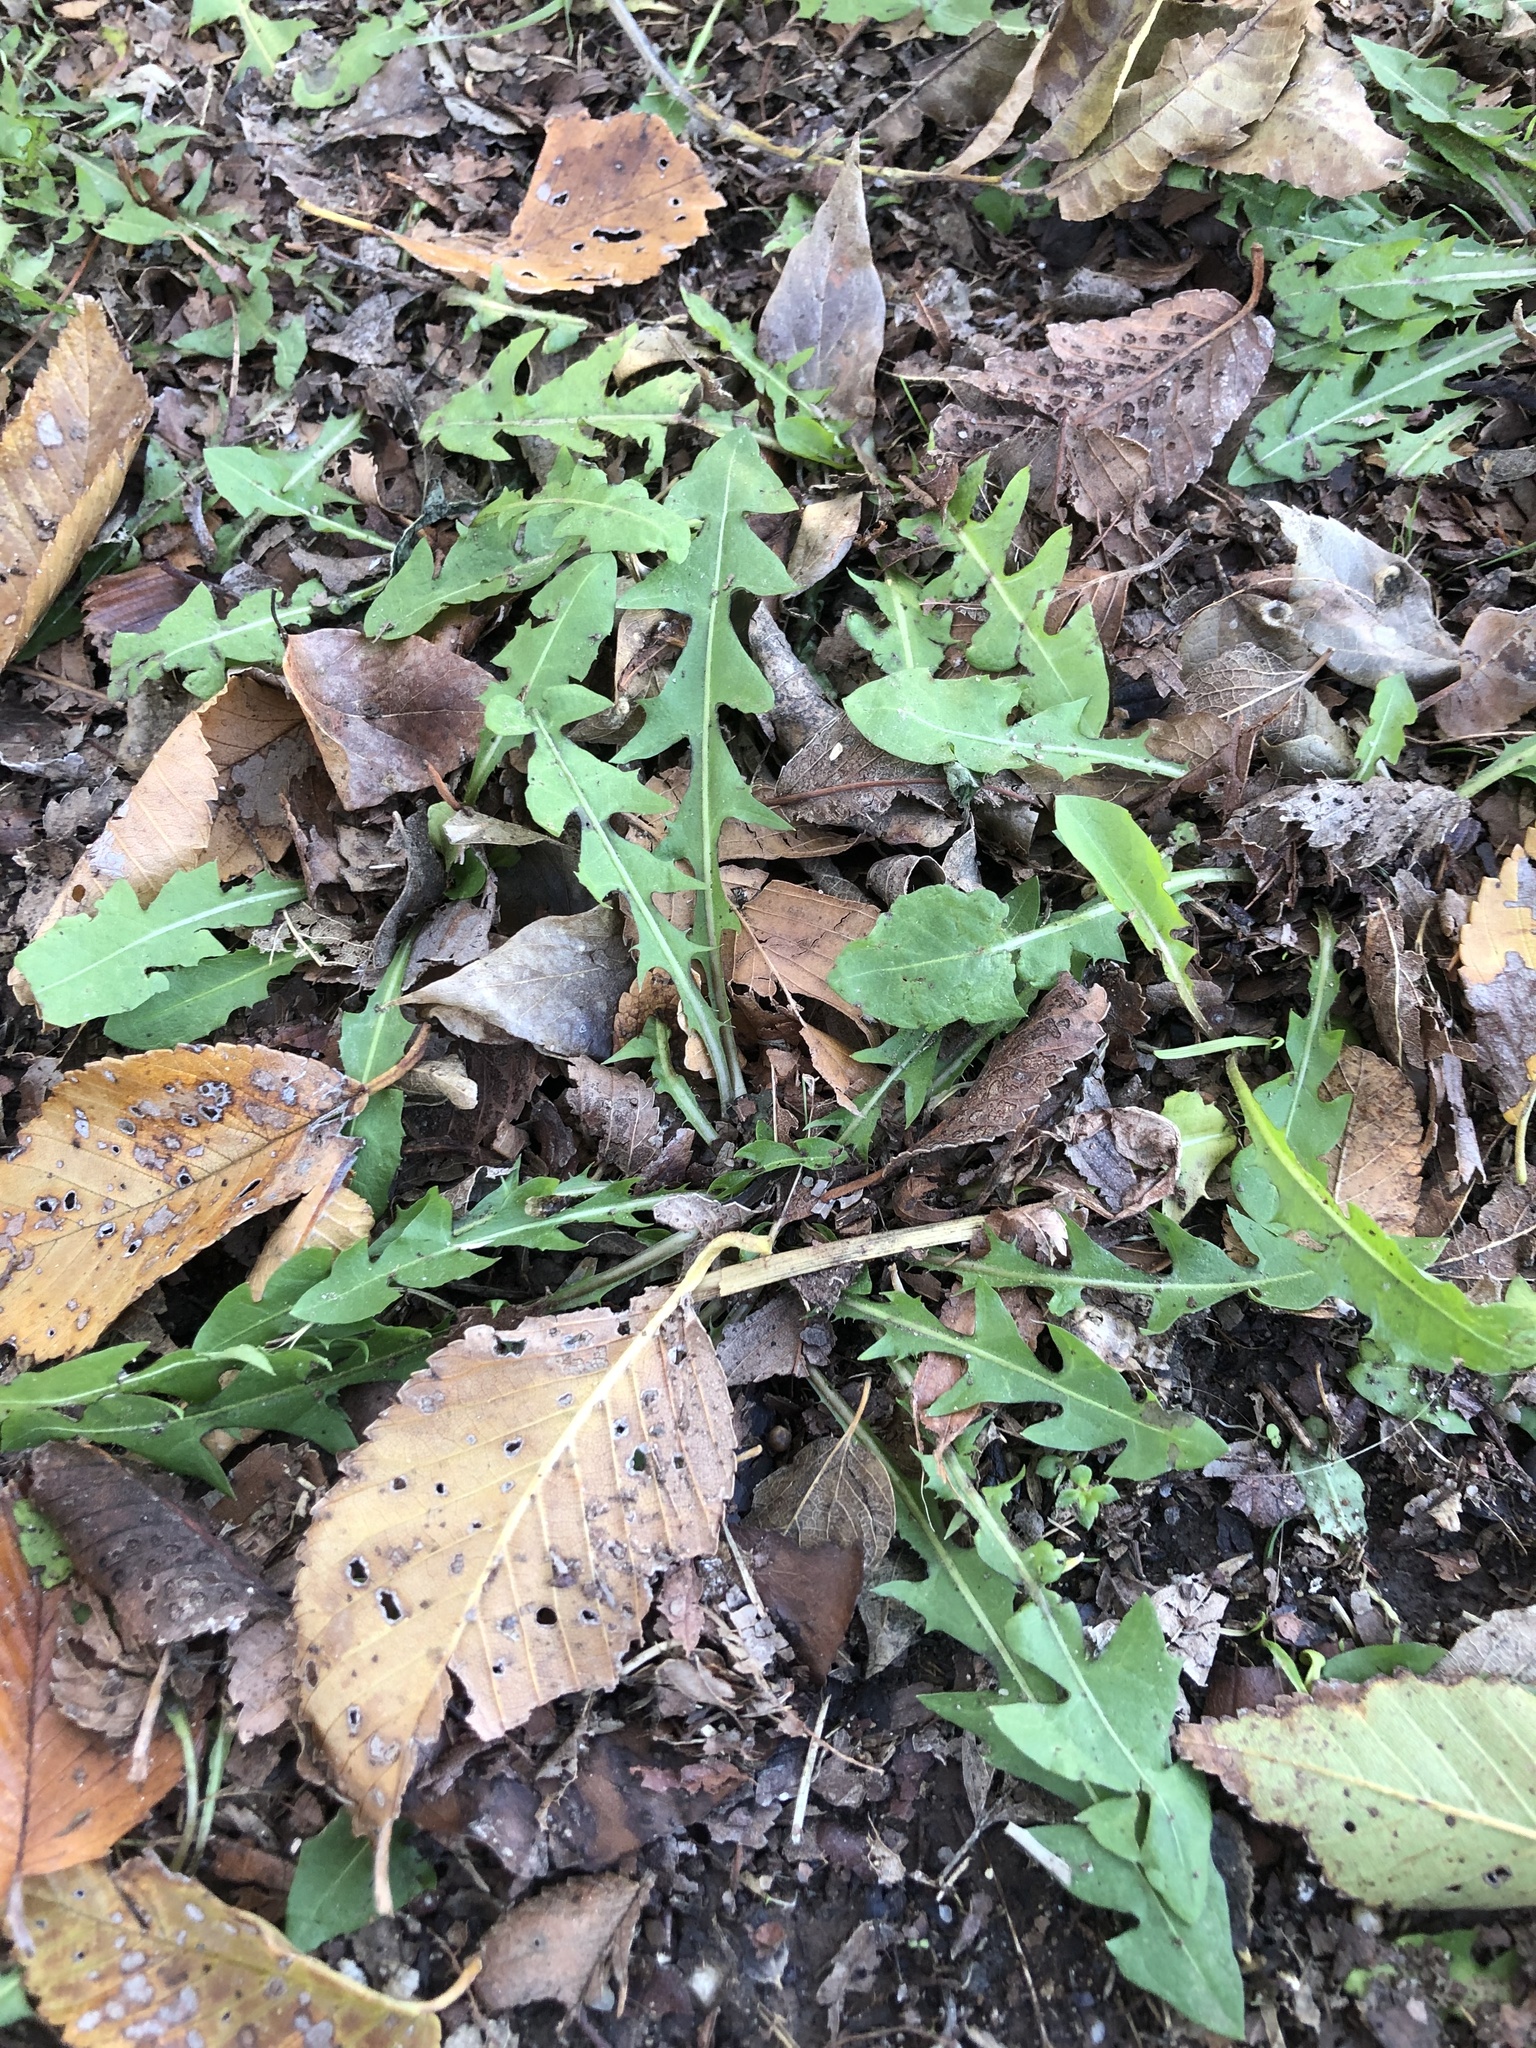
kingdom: Plantae
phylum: Tracheophyta
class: Magnoliopsida
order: Asterales
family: Asteraceae
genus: Taraxacum
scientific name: Taraxacum
